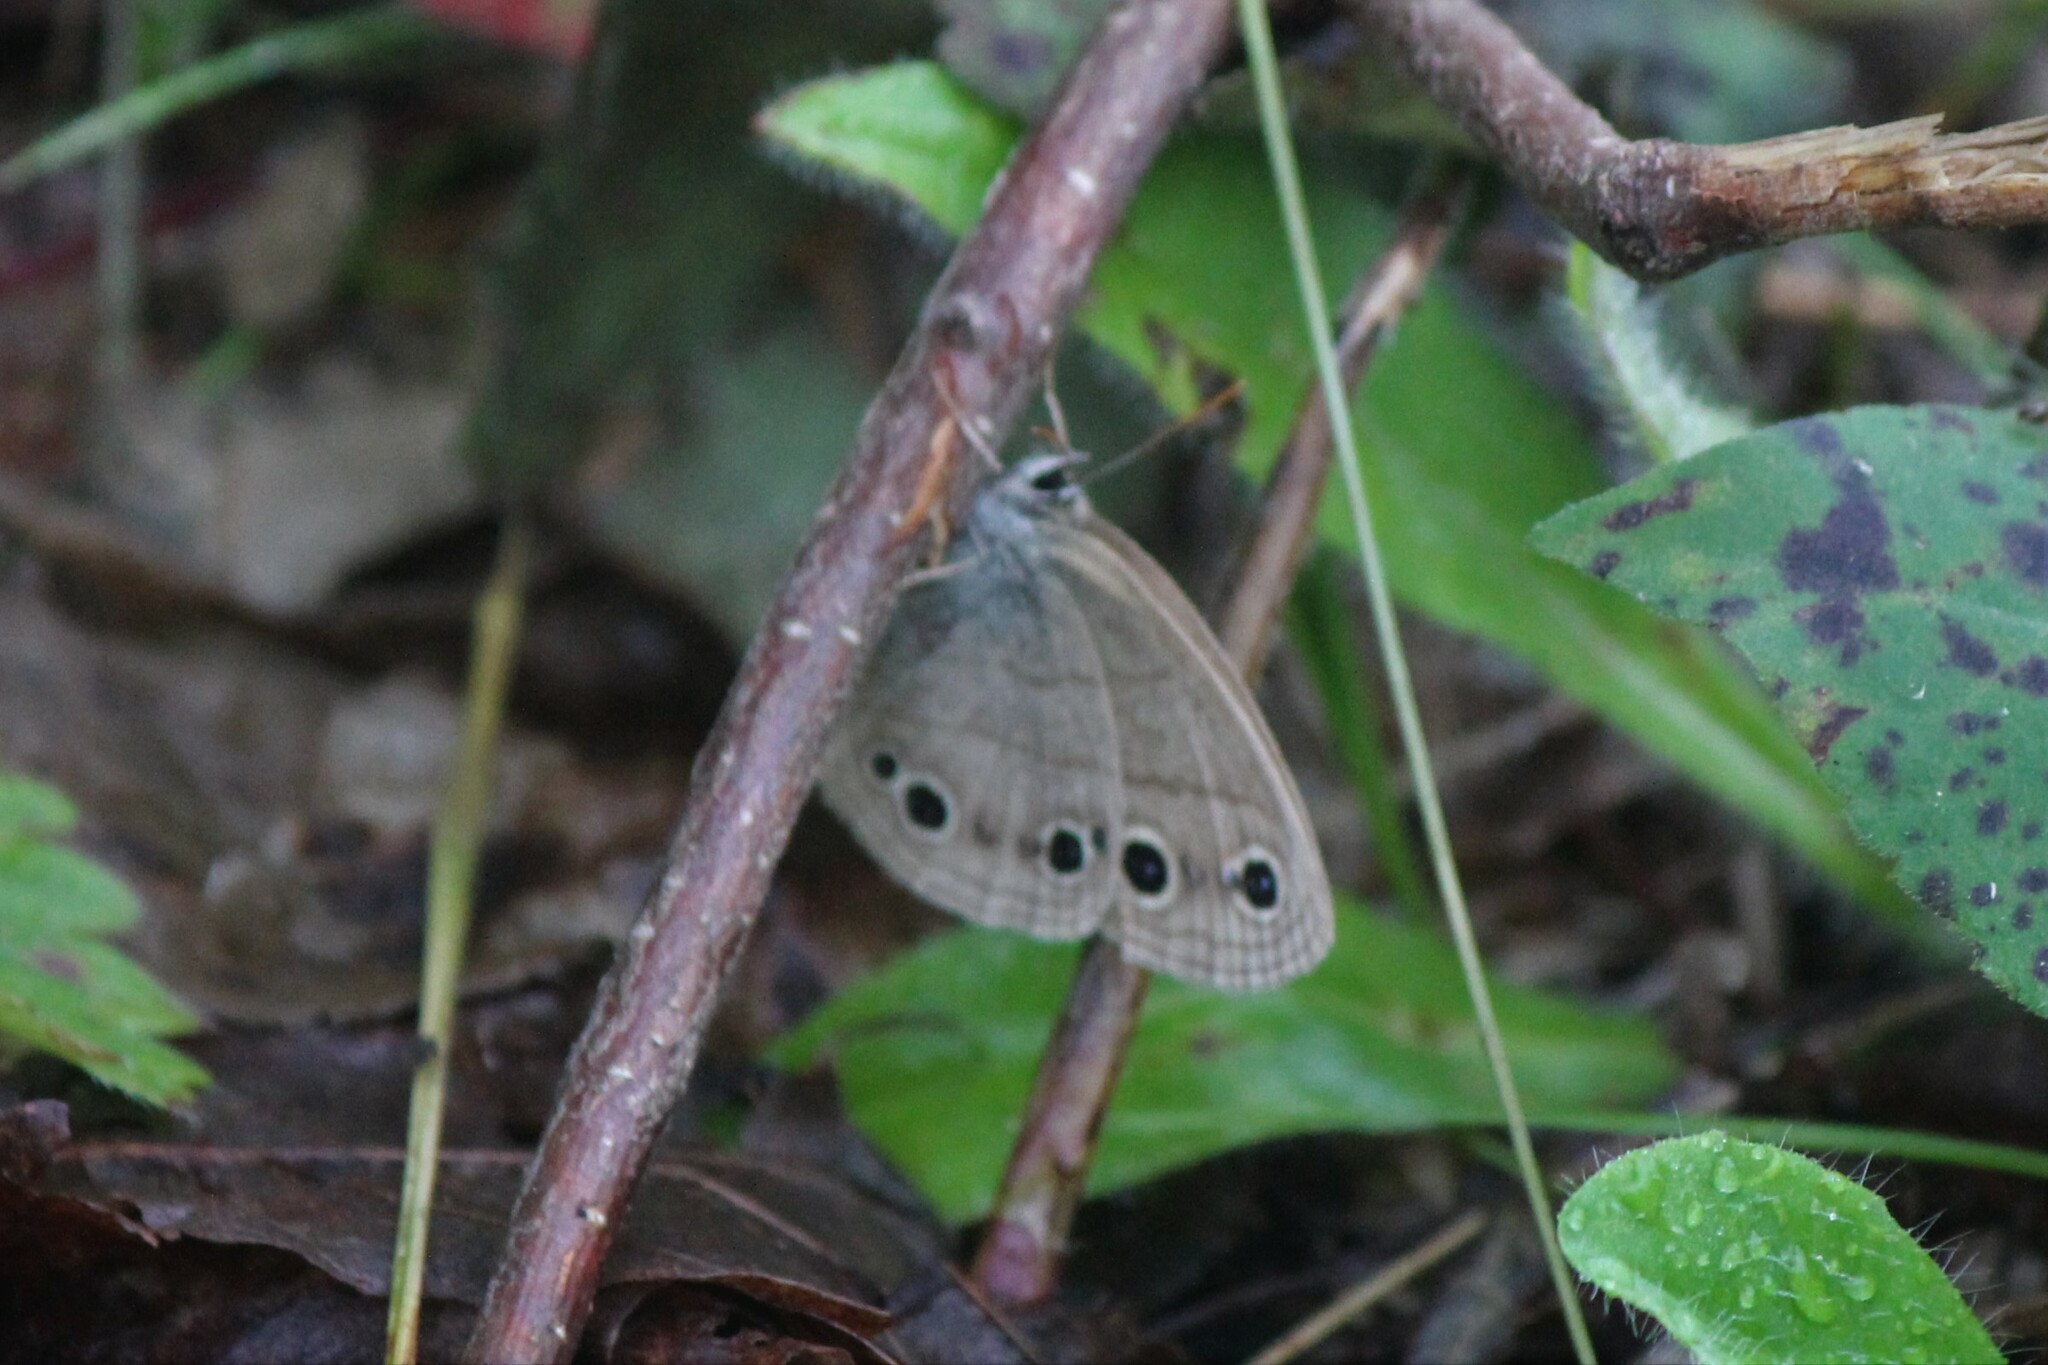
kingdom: Animalia
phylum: Arthropoda
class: Insecta
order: Lepidoptera
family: Nymphalidae
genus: Euptychia
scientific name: Euptychia cymela
